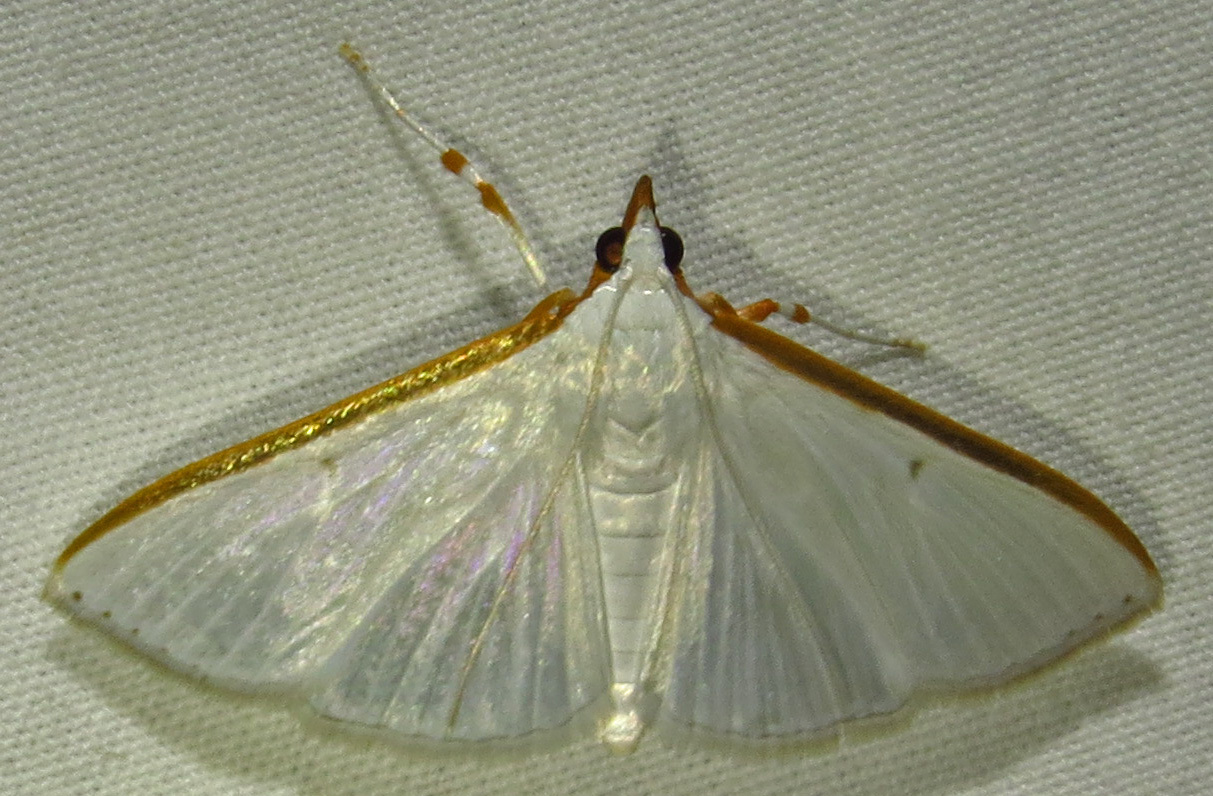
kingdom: Animalia
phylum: Arthropoda
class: Insecta
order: Lepidoptera
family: Crambidae
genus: Diaphania
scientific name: Diaphania costata
